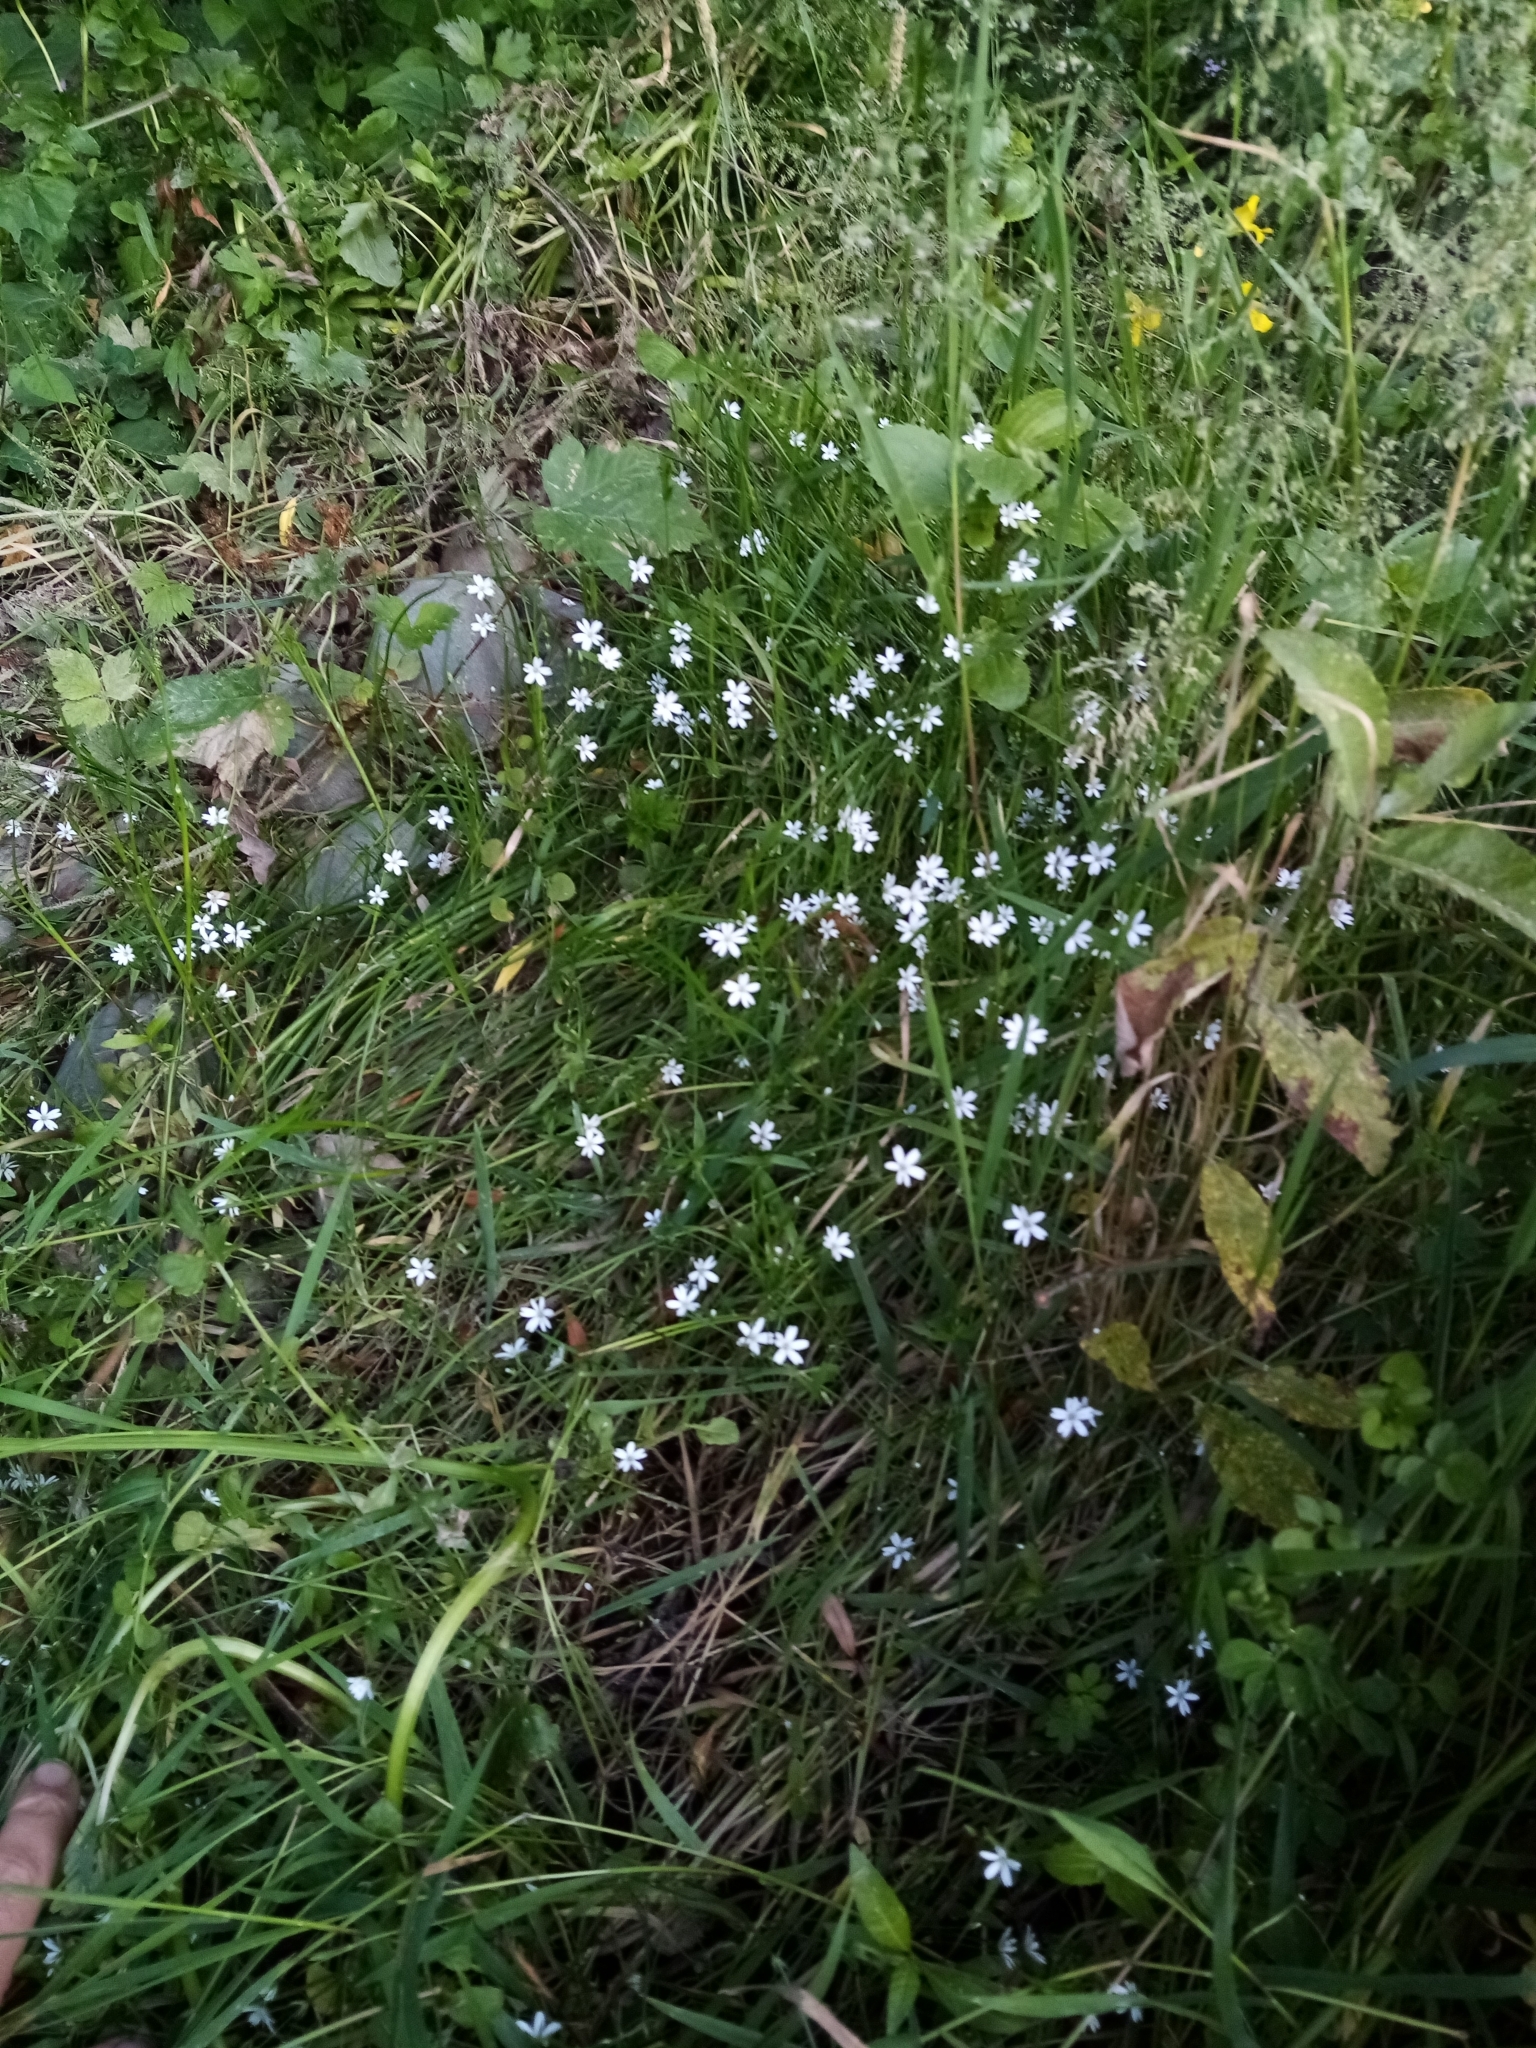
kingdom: Plantae
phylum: Tracheophyta
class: Magnoliopsida
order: Caryophyllales
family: Caryophyllaceae
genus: Stellaria
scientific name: Stellaria graminea
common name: Grass-like starwort
